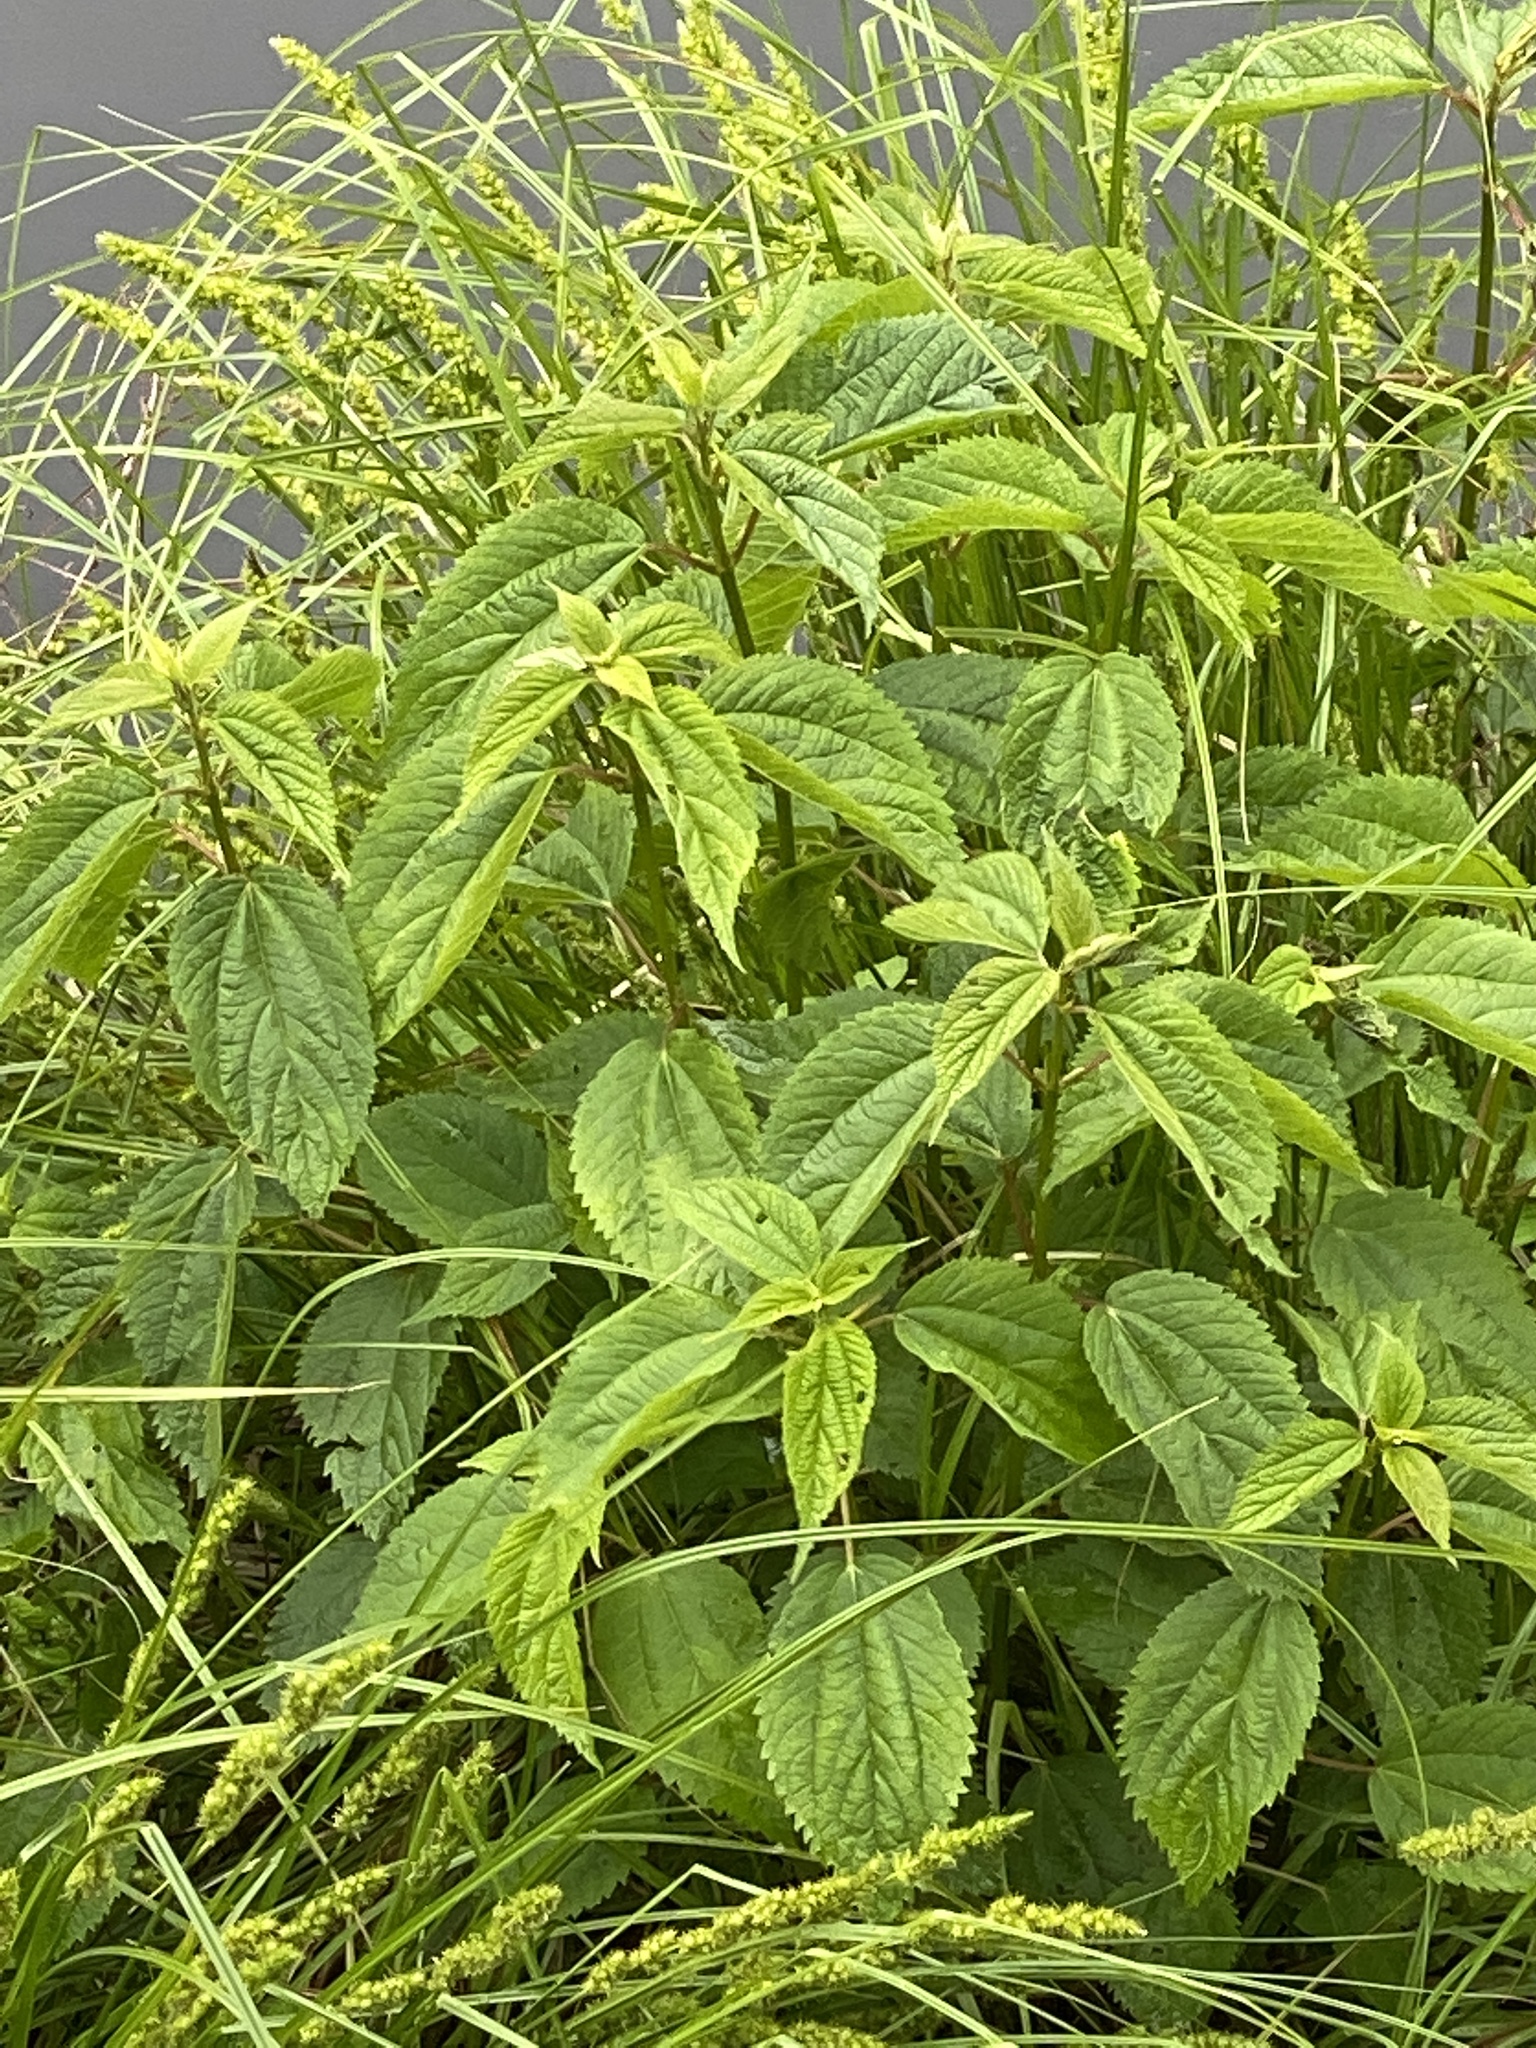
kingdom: Plantae
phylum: Tracheophyta
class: Magnoliopsida
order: Rosales
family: Urticaceae
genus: Boehmeria
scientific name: Boehmeria cylindrica
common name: Bog-hemp
